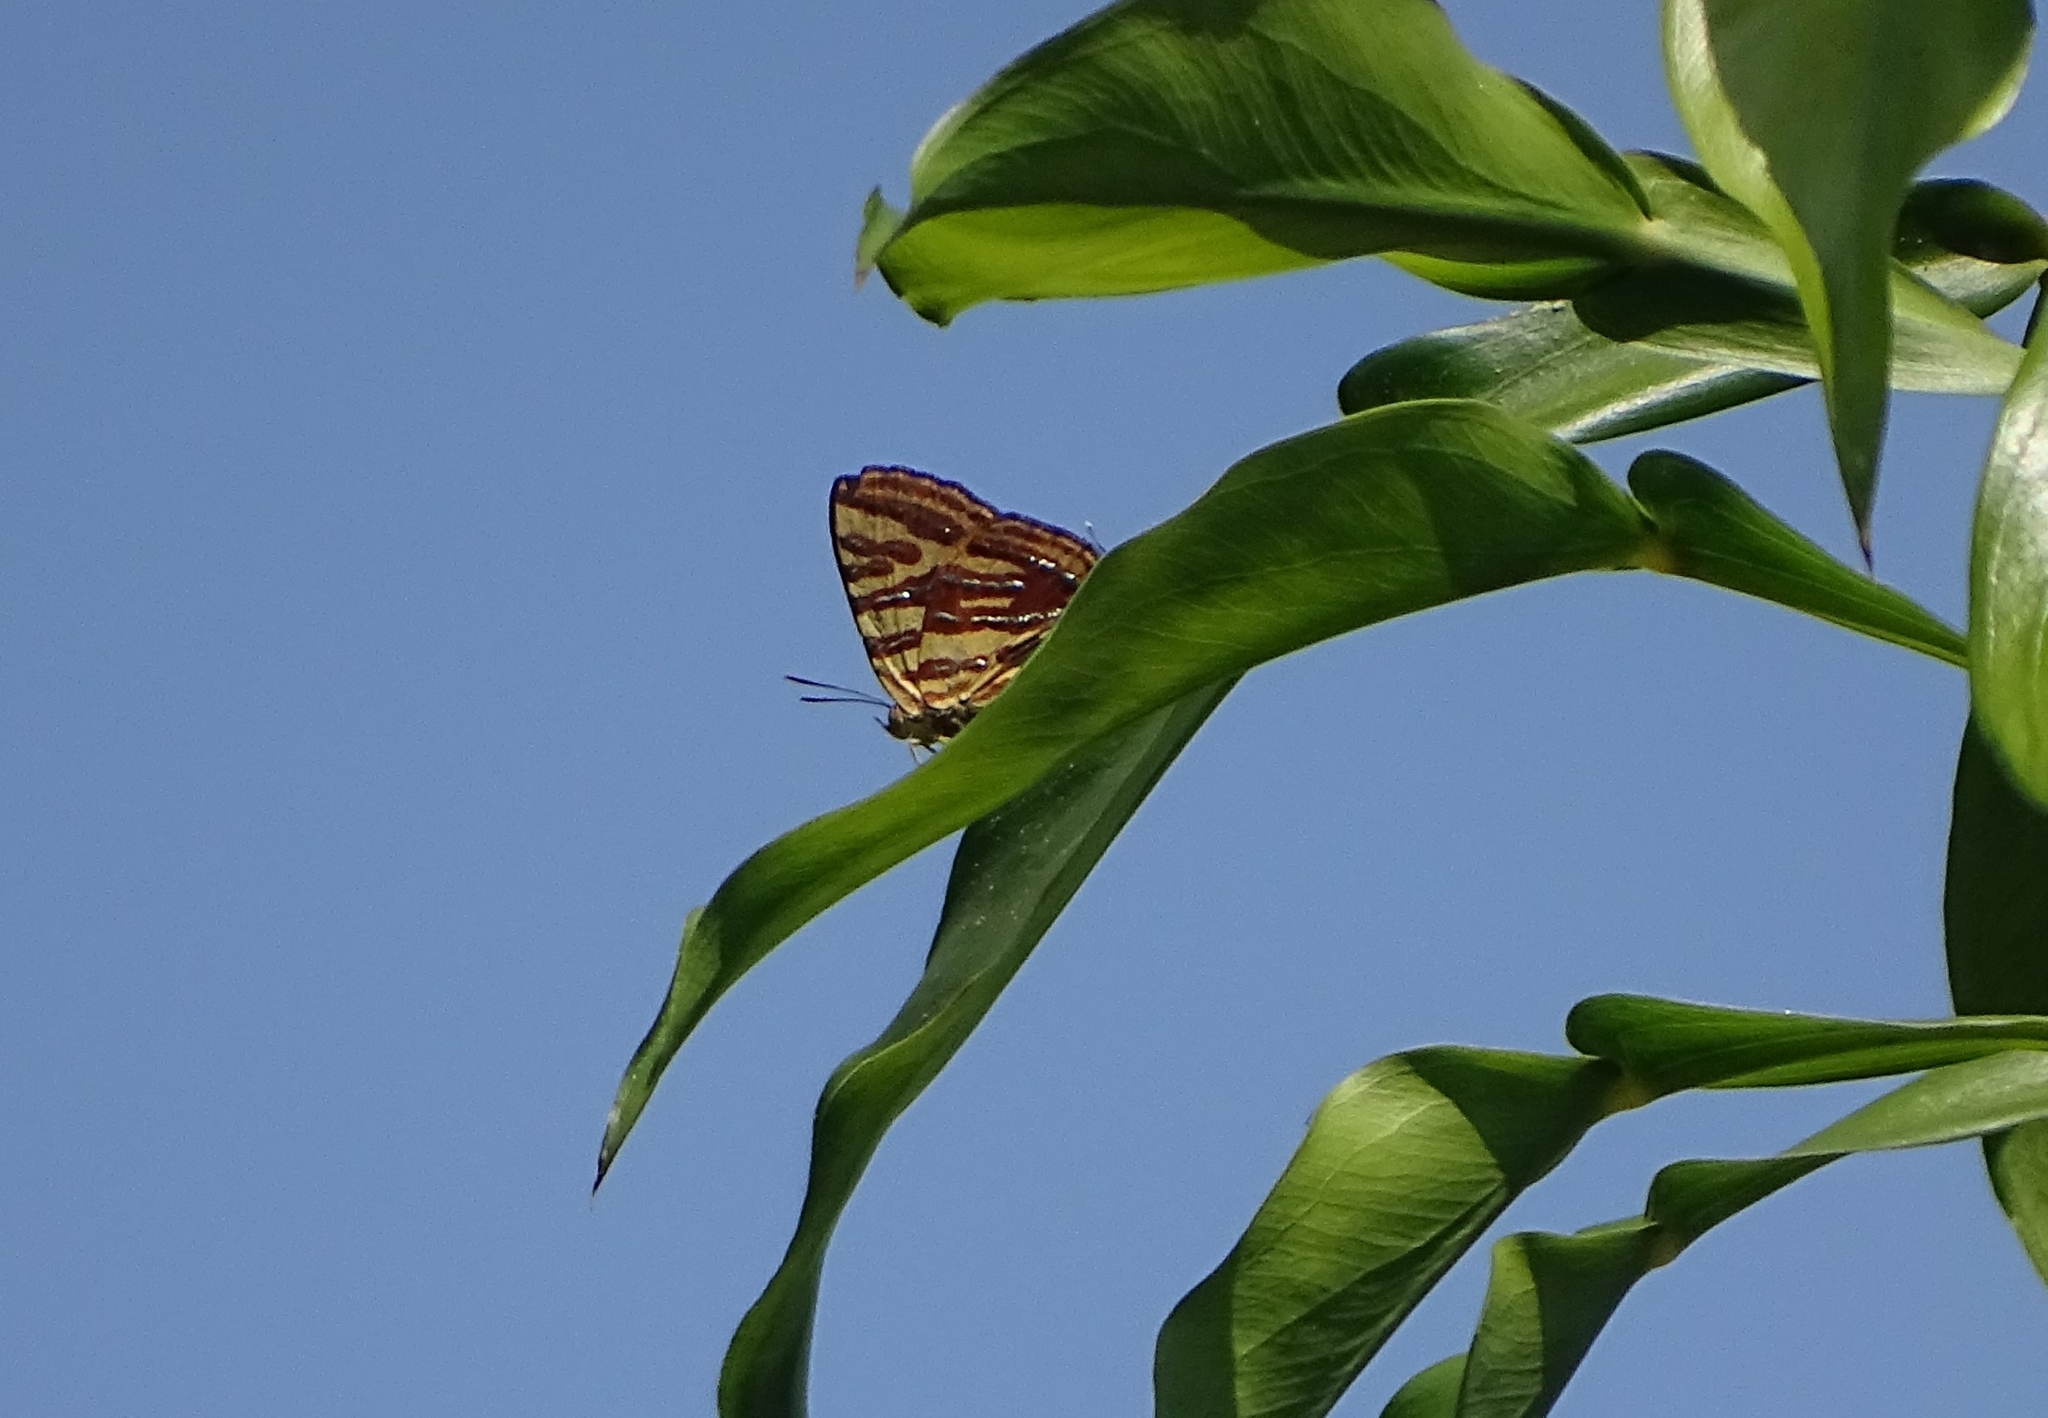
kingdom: Animalia
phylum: Arthropoda
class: Insecta
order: Lepidoptera
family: Lycaenidae
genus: Cigaritis
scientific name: Cigaritis lohita
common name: Long-banded silverline
